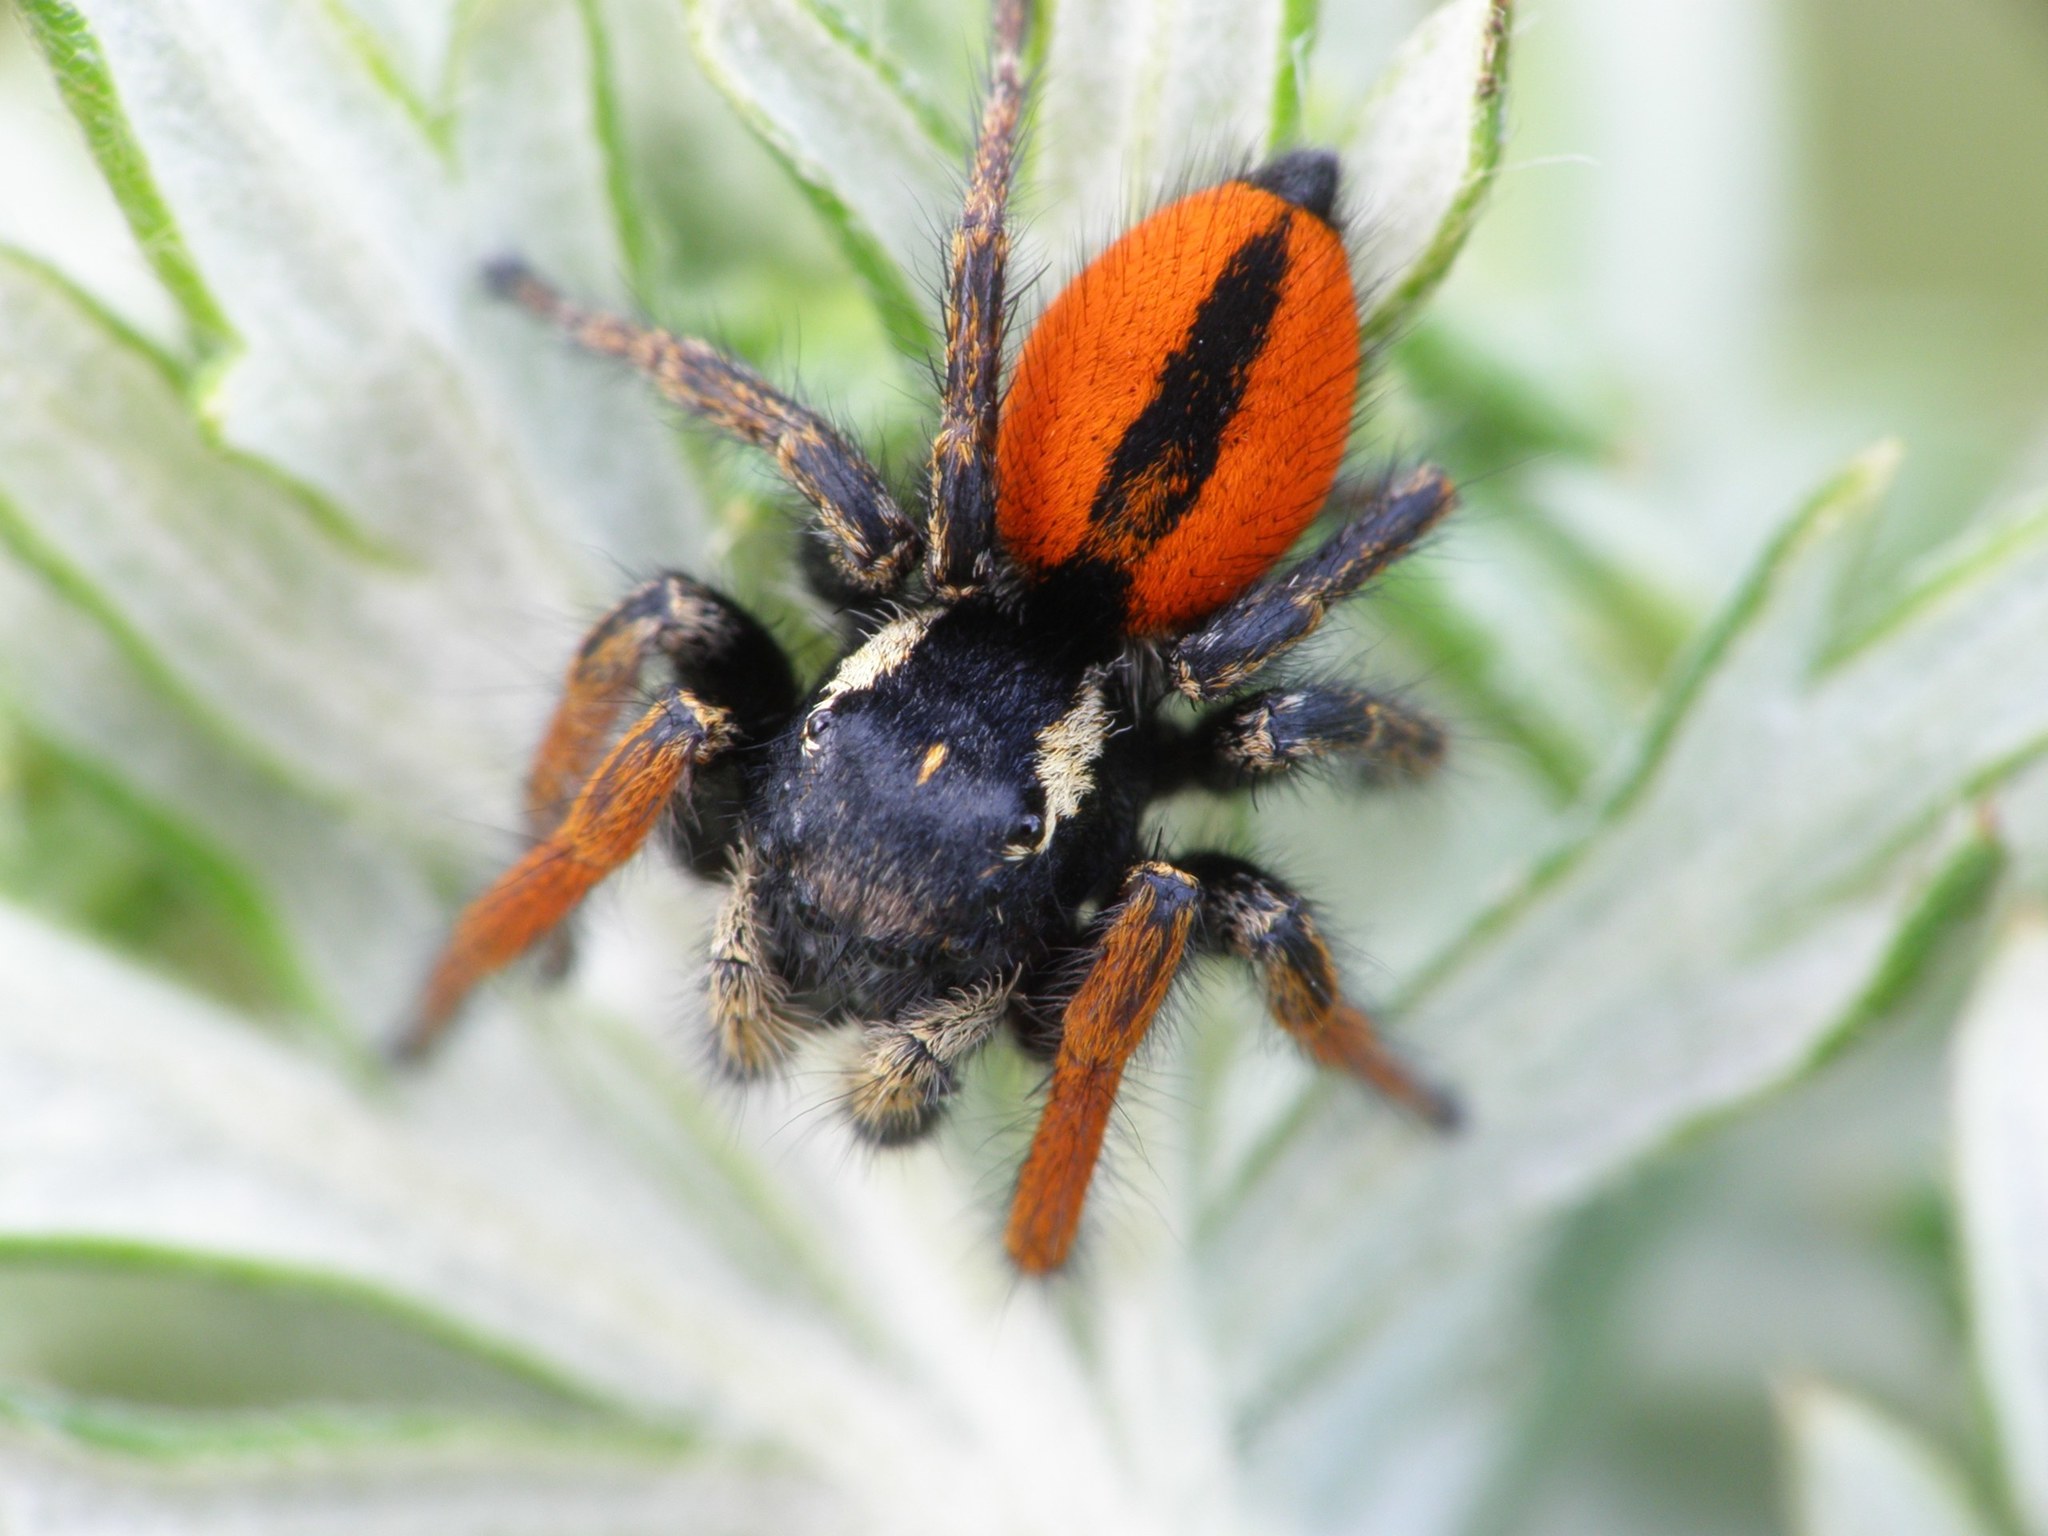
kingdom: Animalia
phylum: Arthropoda
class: Arachnida
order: Araneae
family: Salticidae
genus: Philaeus
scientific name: Philaeus chrysops
